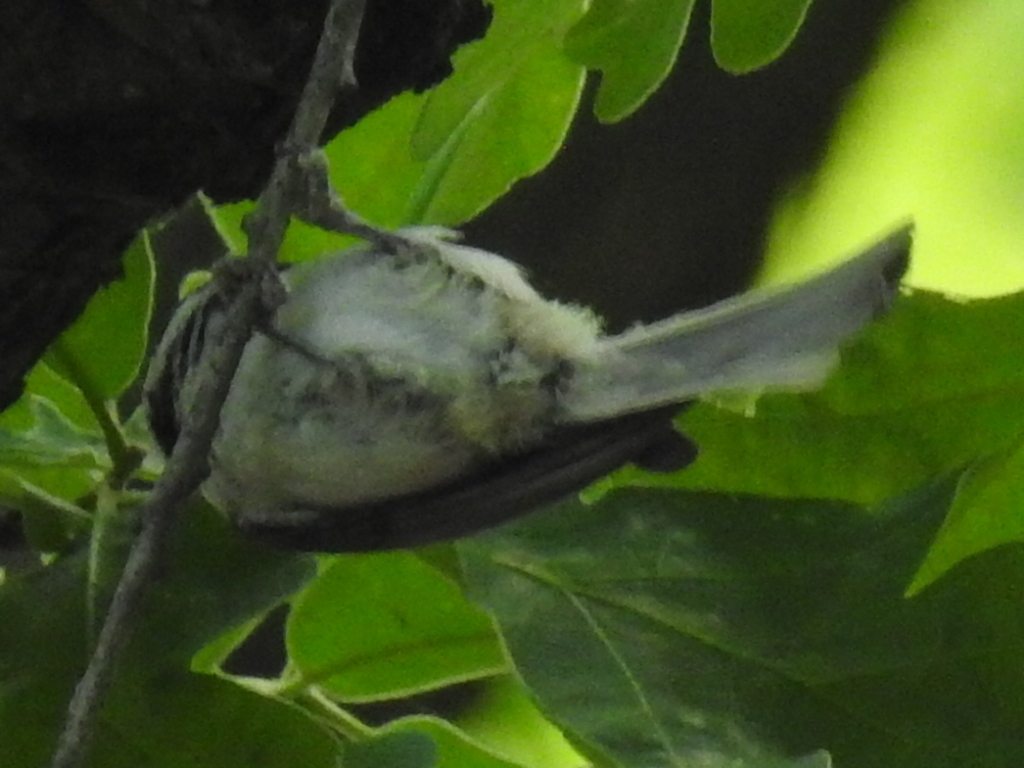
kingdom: Animalia
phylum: Chordata
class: Aves
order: Passeriformes
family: Paridae
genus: Poecile
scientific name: Poecile carolinensis
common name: Carolina chickadee
